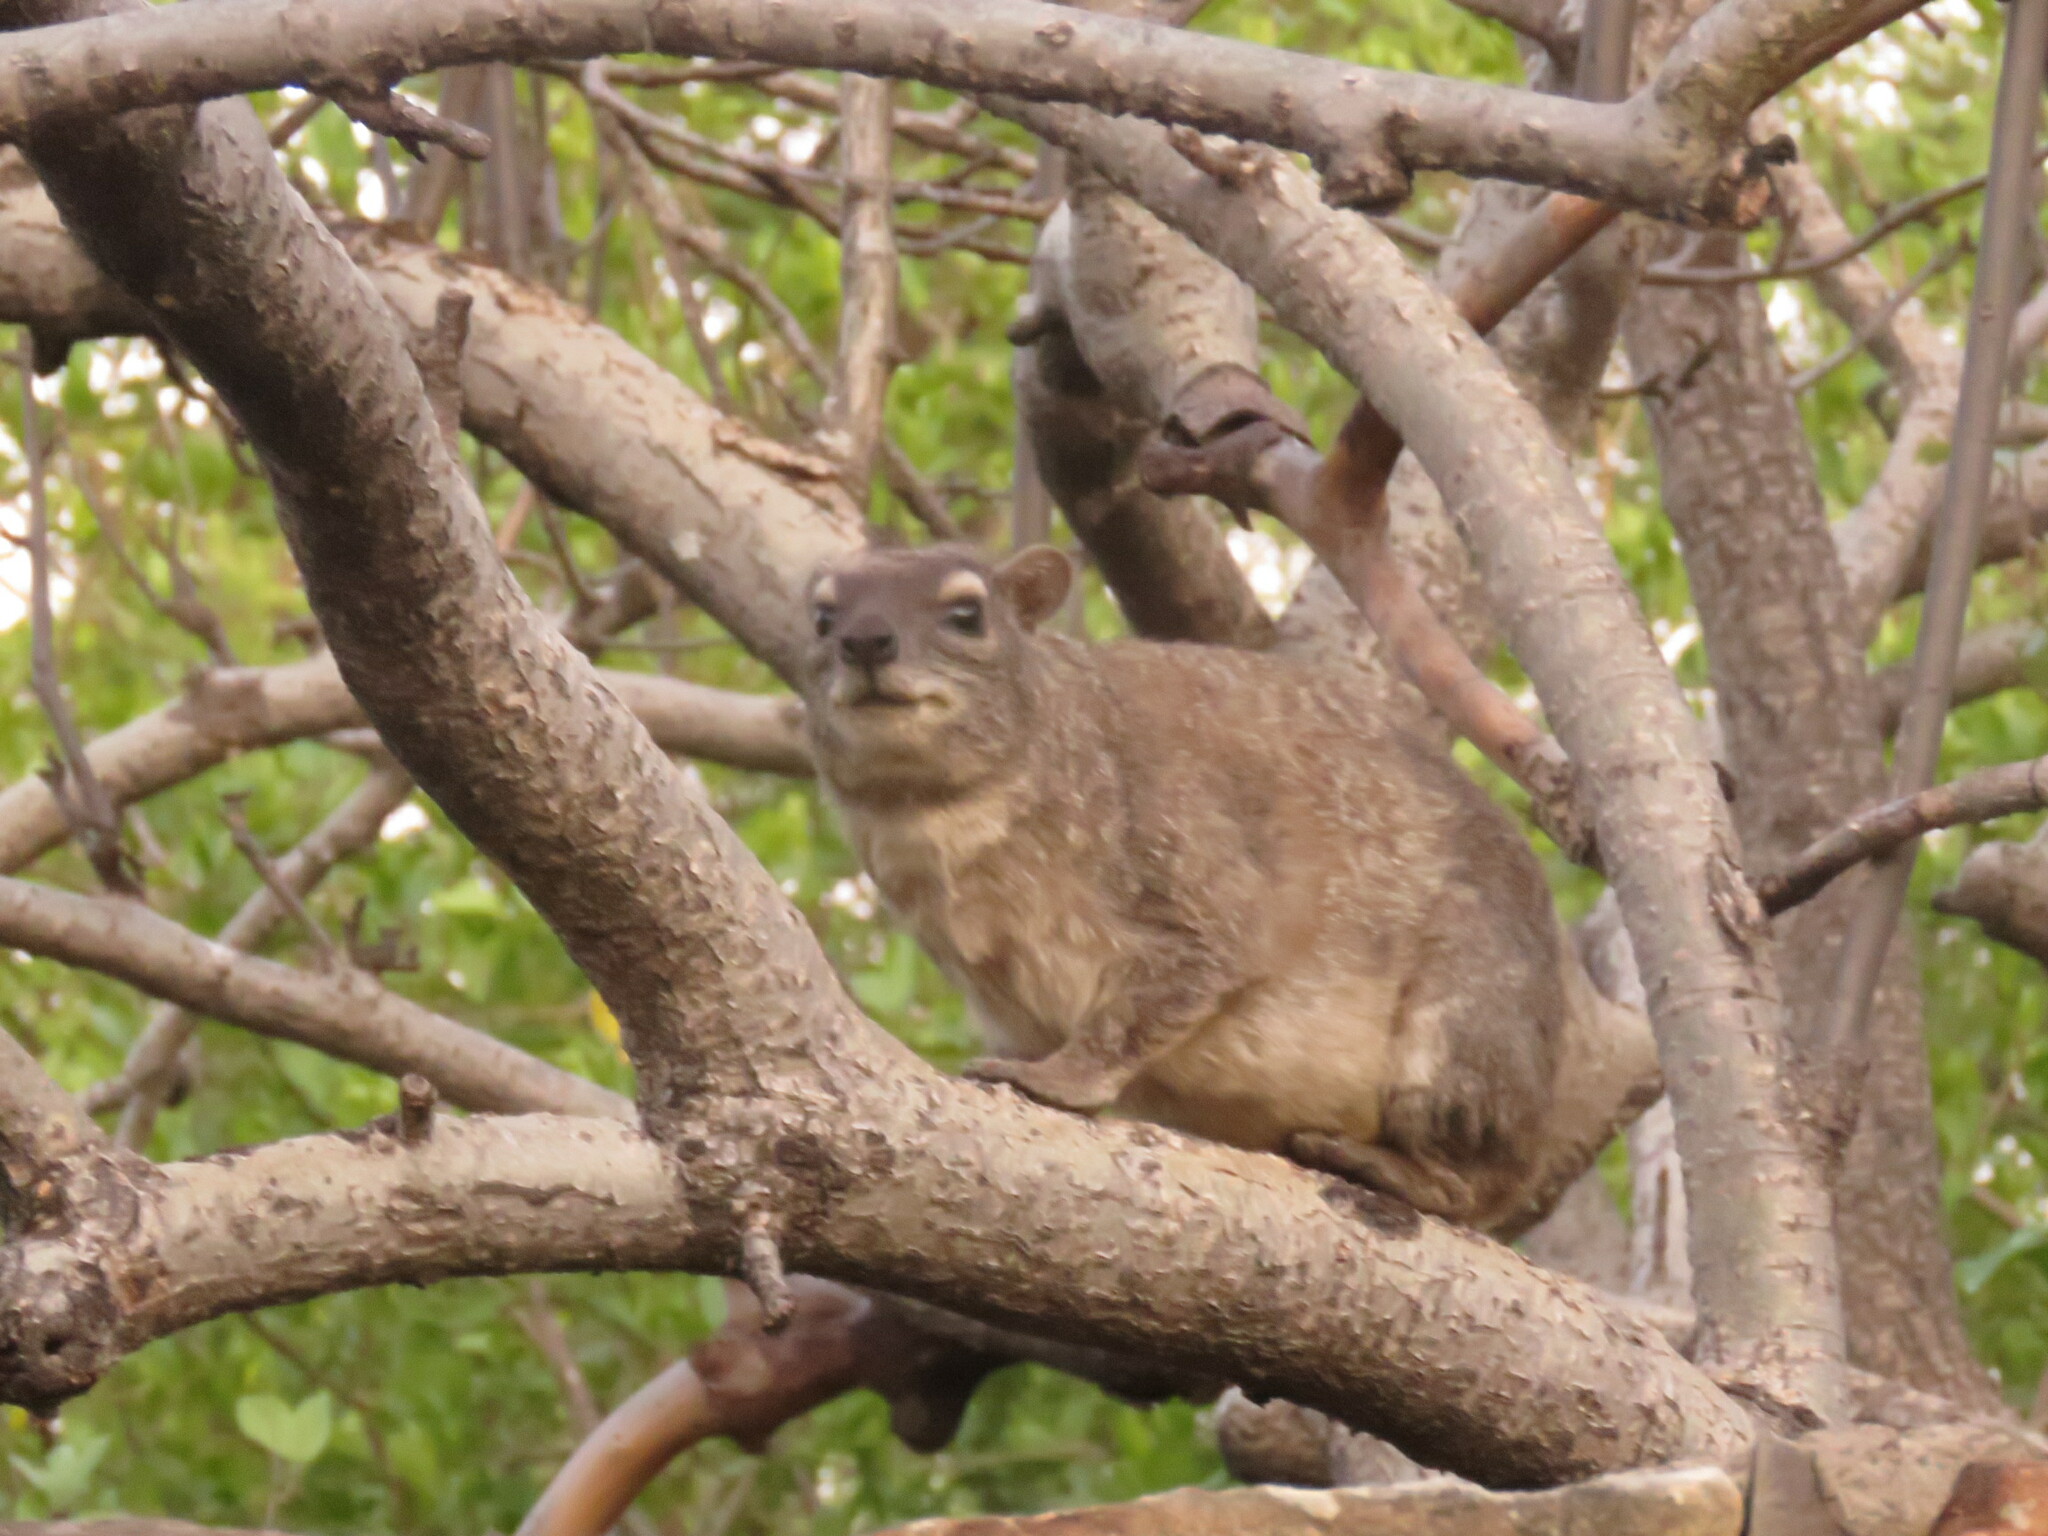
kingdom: Animalia
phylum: Chordata
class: Mammalia
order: Hyracoidea
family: Procaviidae
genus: Heterohyrax
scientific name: Heterohyrax brucei
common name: Bush hyrax
